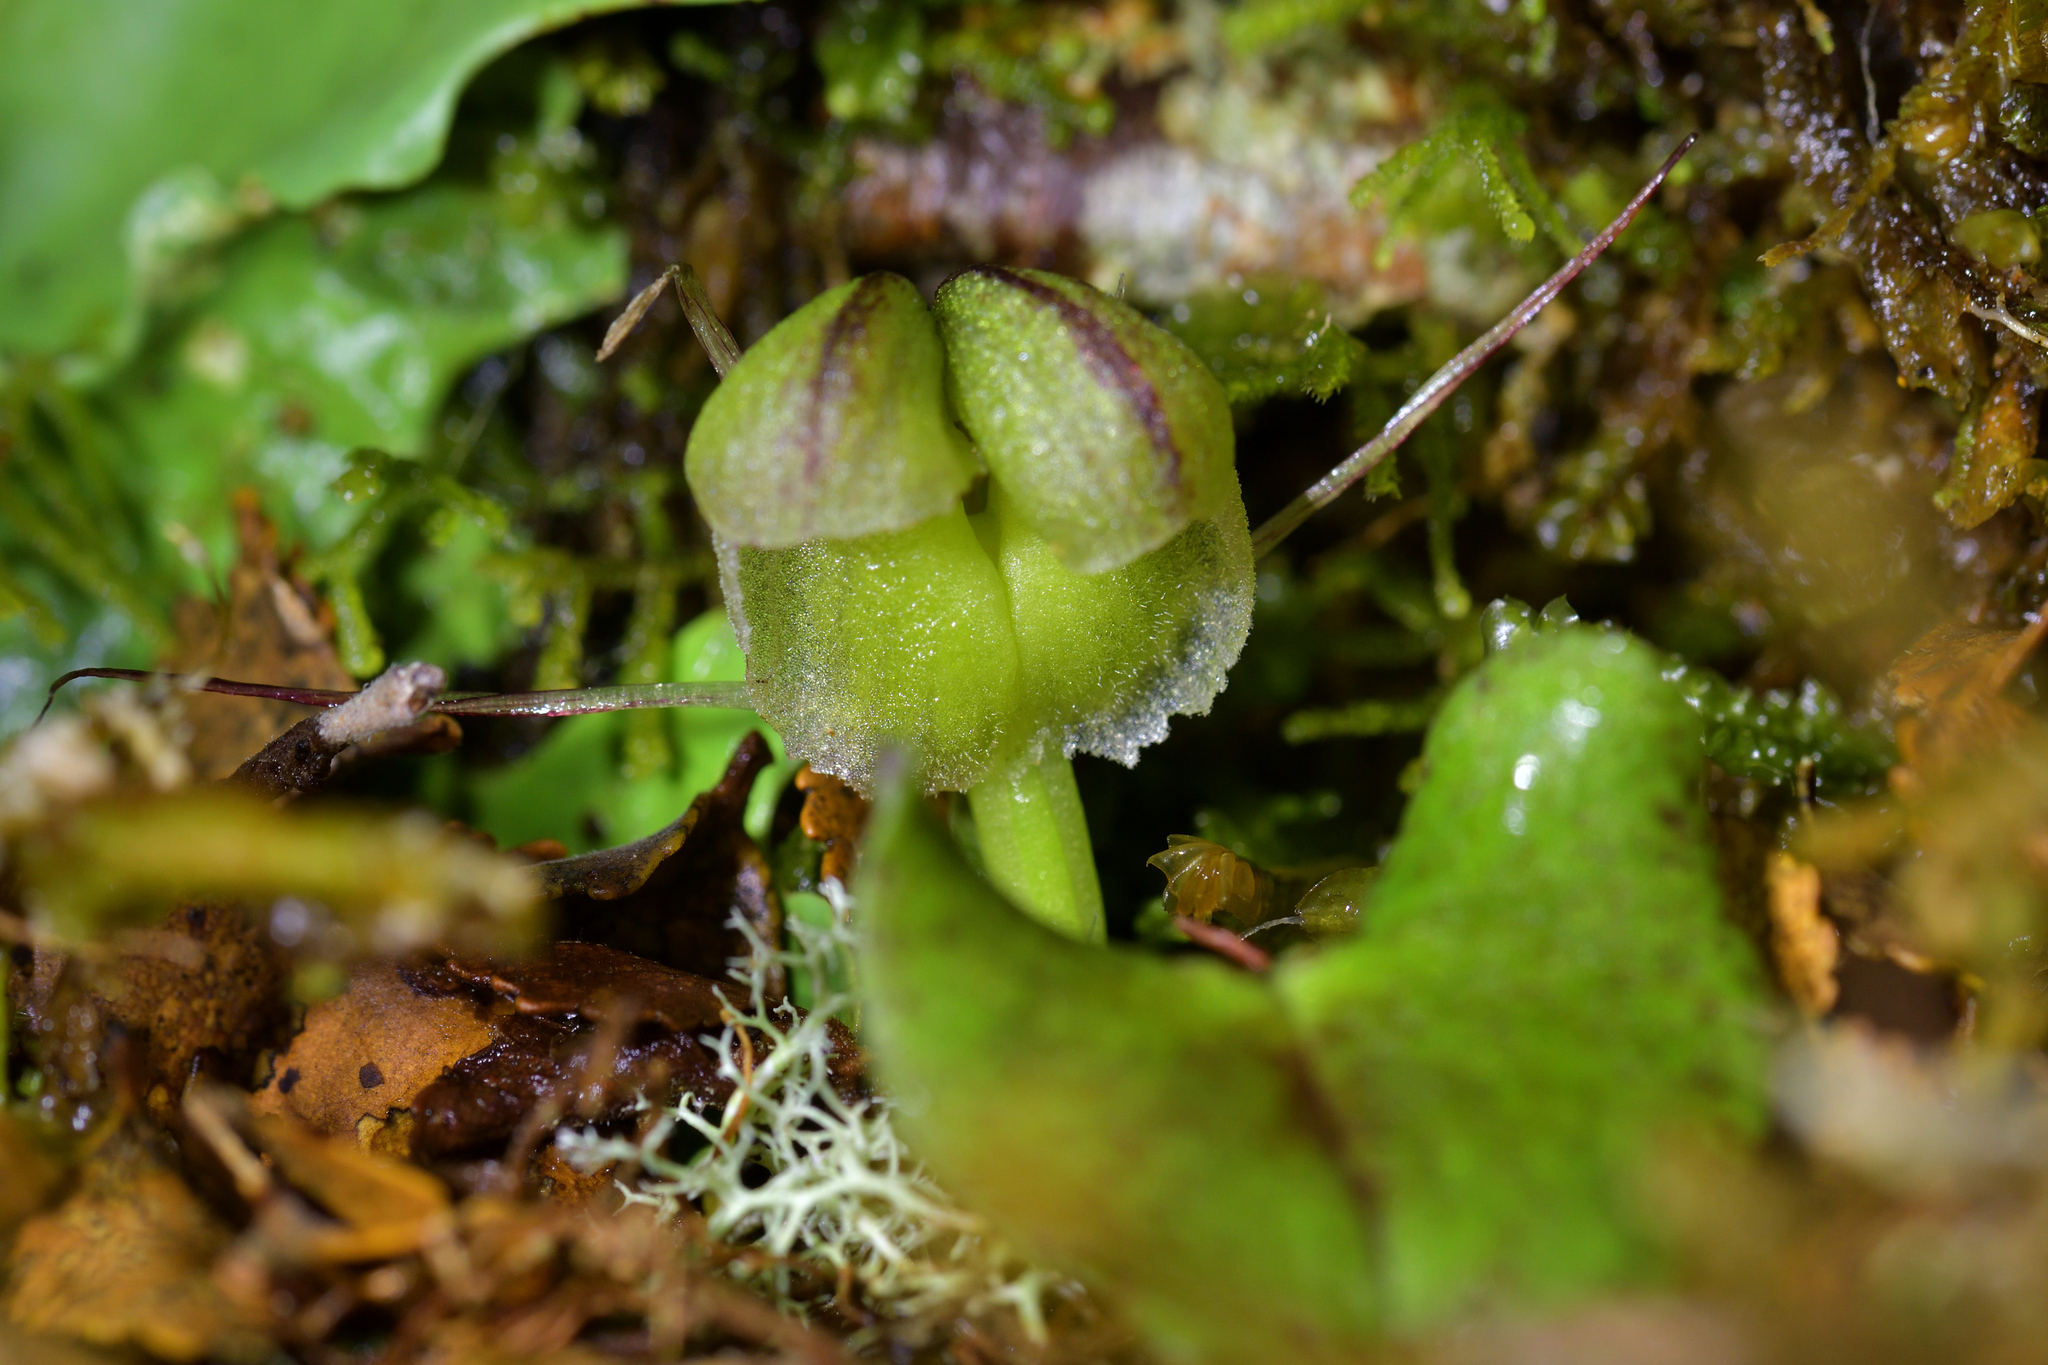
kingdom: Plantae
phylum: Tracheophyta
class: Liliopsida
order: Asparagales
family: Orchidaceae
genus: Corybas
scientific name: Corybas walliae
